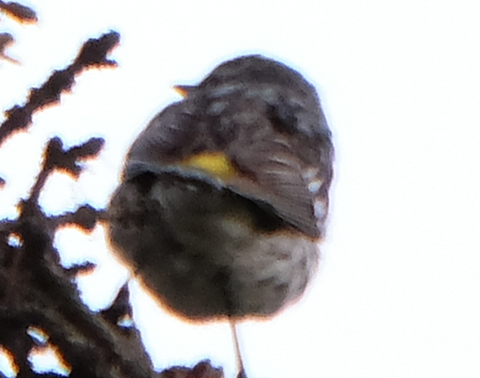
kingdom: Animalia
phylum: Chordata
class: Aves
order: Passeriformes
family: Parulidae
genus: Setophaga
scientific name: Setophaga coronata
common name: Myrtle warbler
